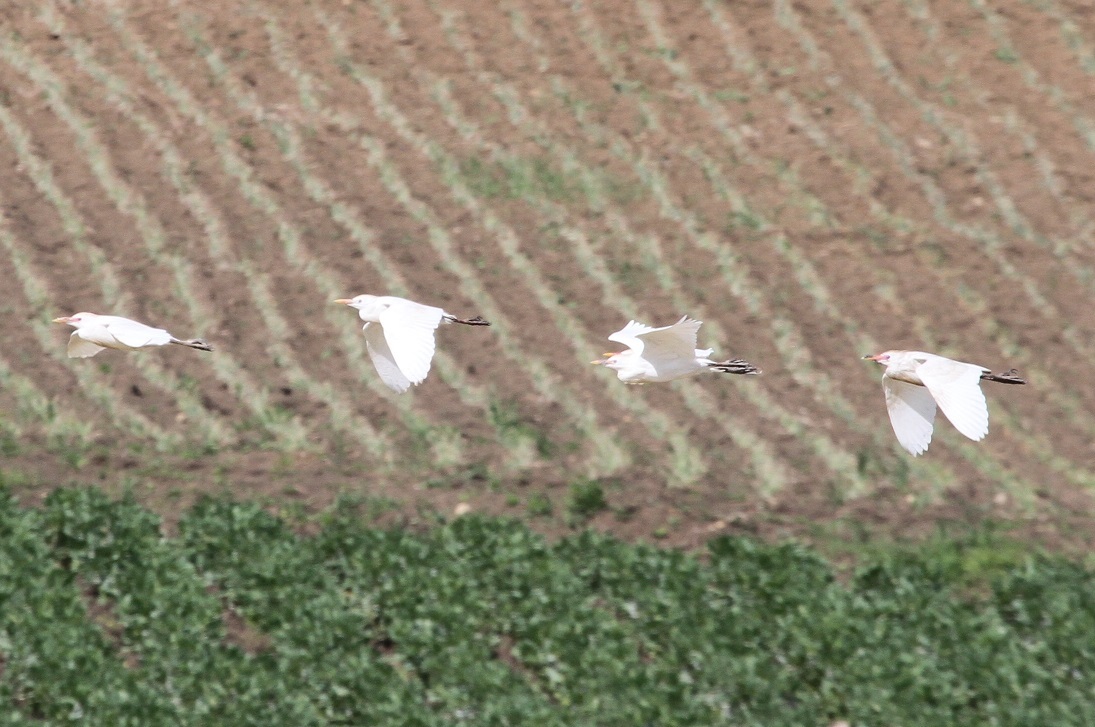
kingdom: Animalia
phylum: Chordata
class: Aves
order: Pelecaniformes
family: Ardeidae
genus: Bubulcus
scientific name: Bubulcus ibis
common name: Cattle egret
